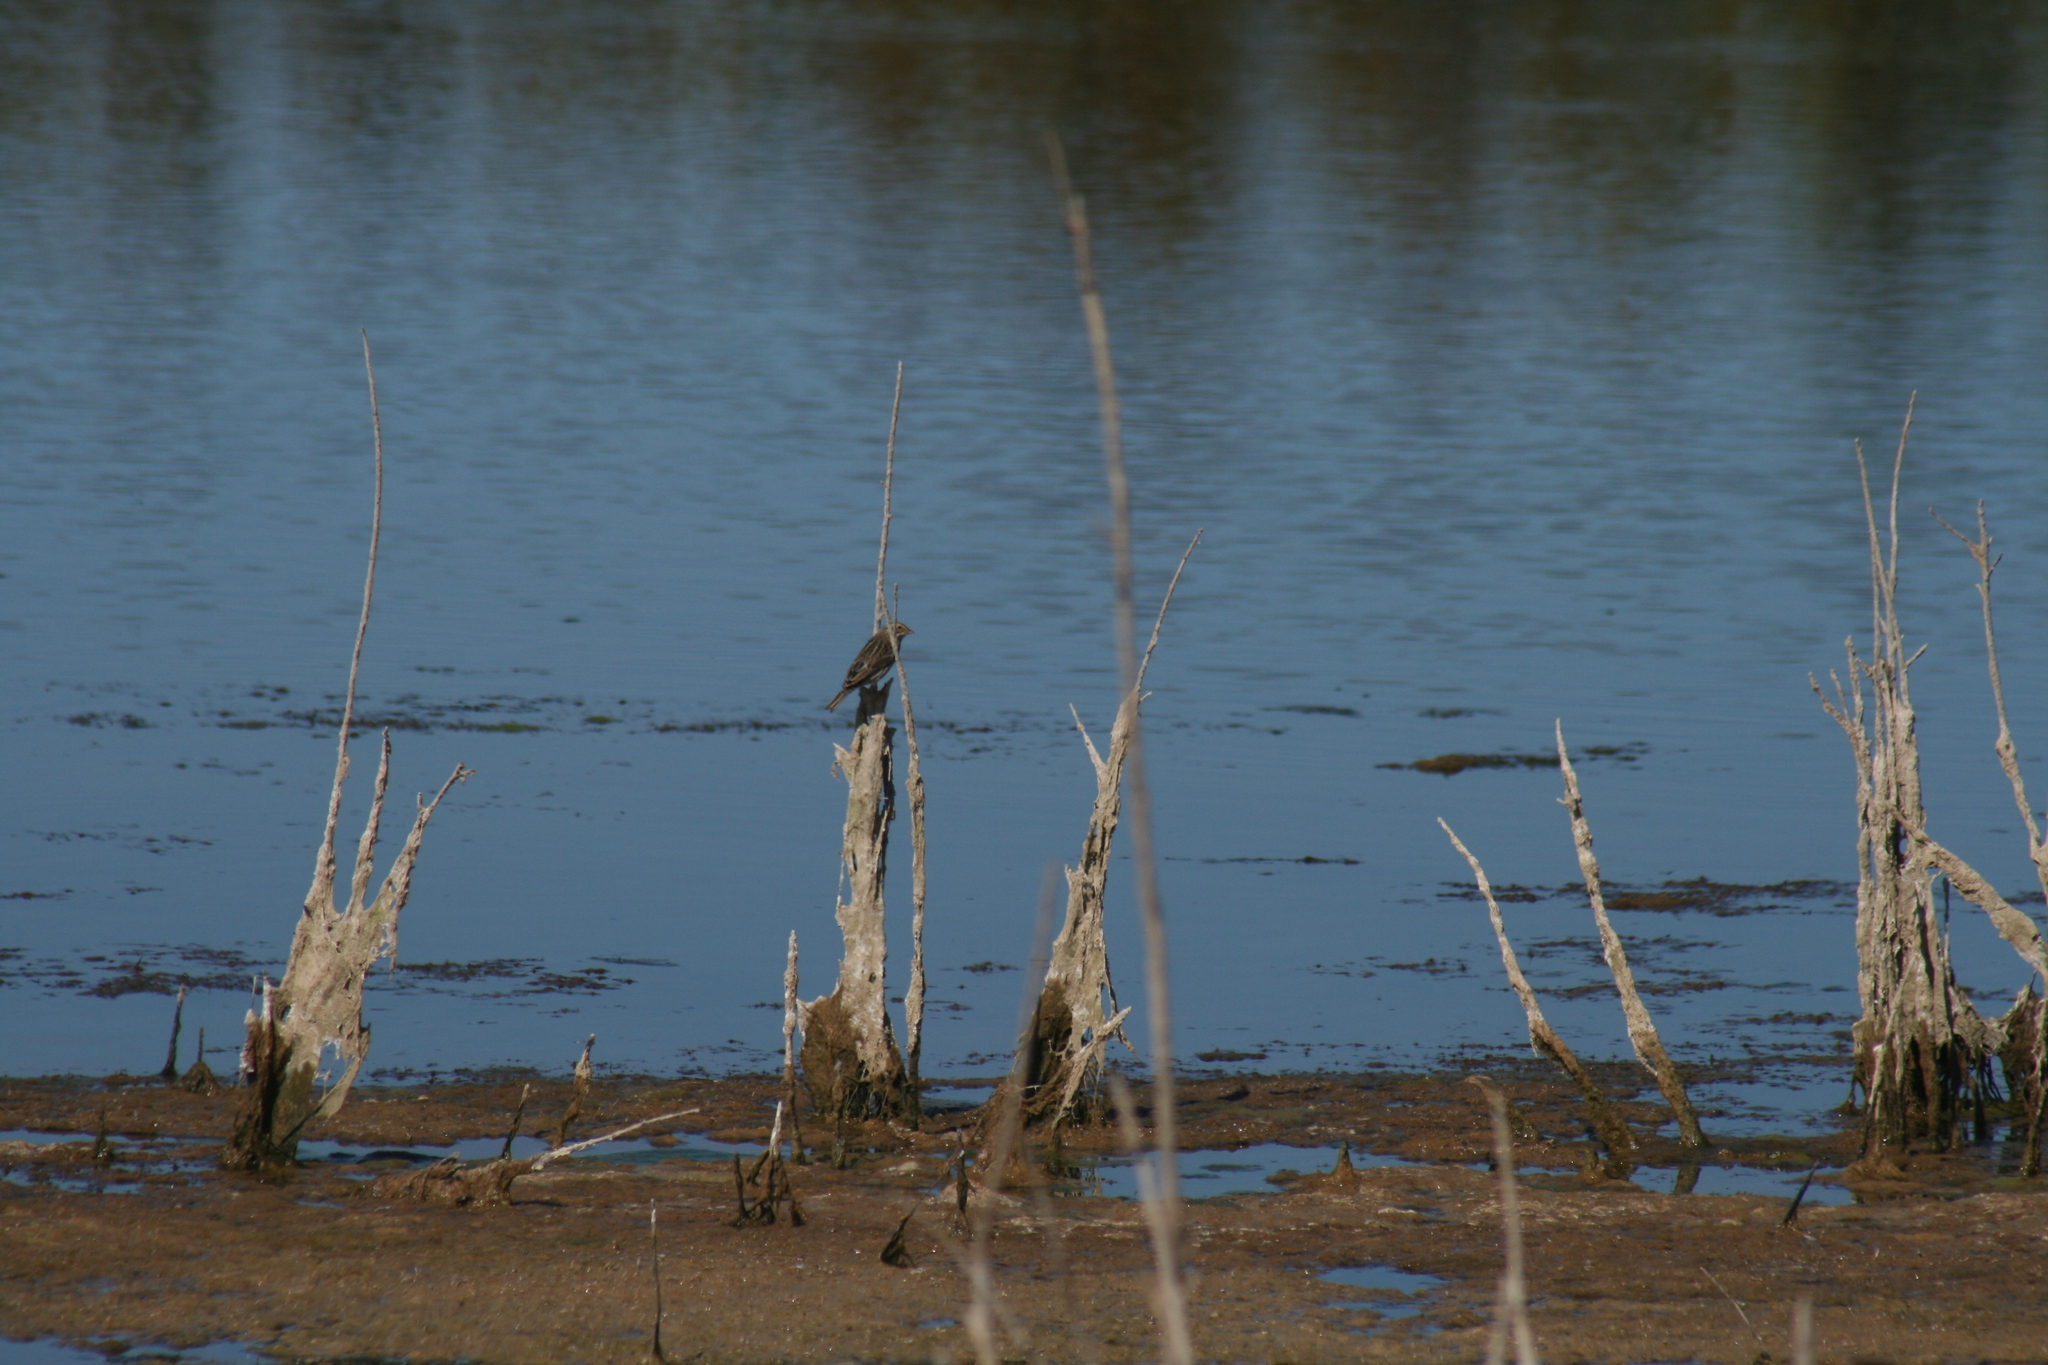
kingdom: Animalia
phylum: Chordata
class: Aves
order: Passeriformes
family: Passerellidae
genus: Passerculus
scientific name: Passerculus sandwichensis
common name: Savannah sparrow
